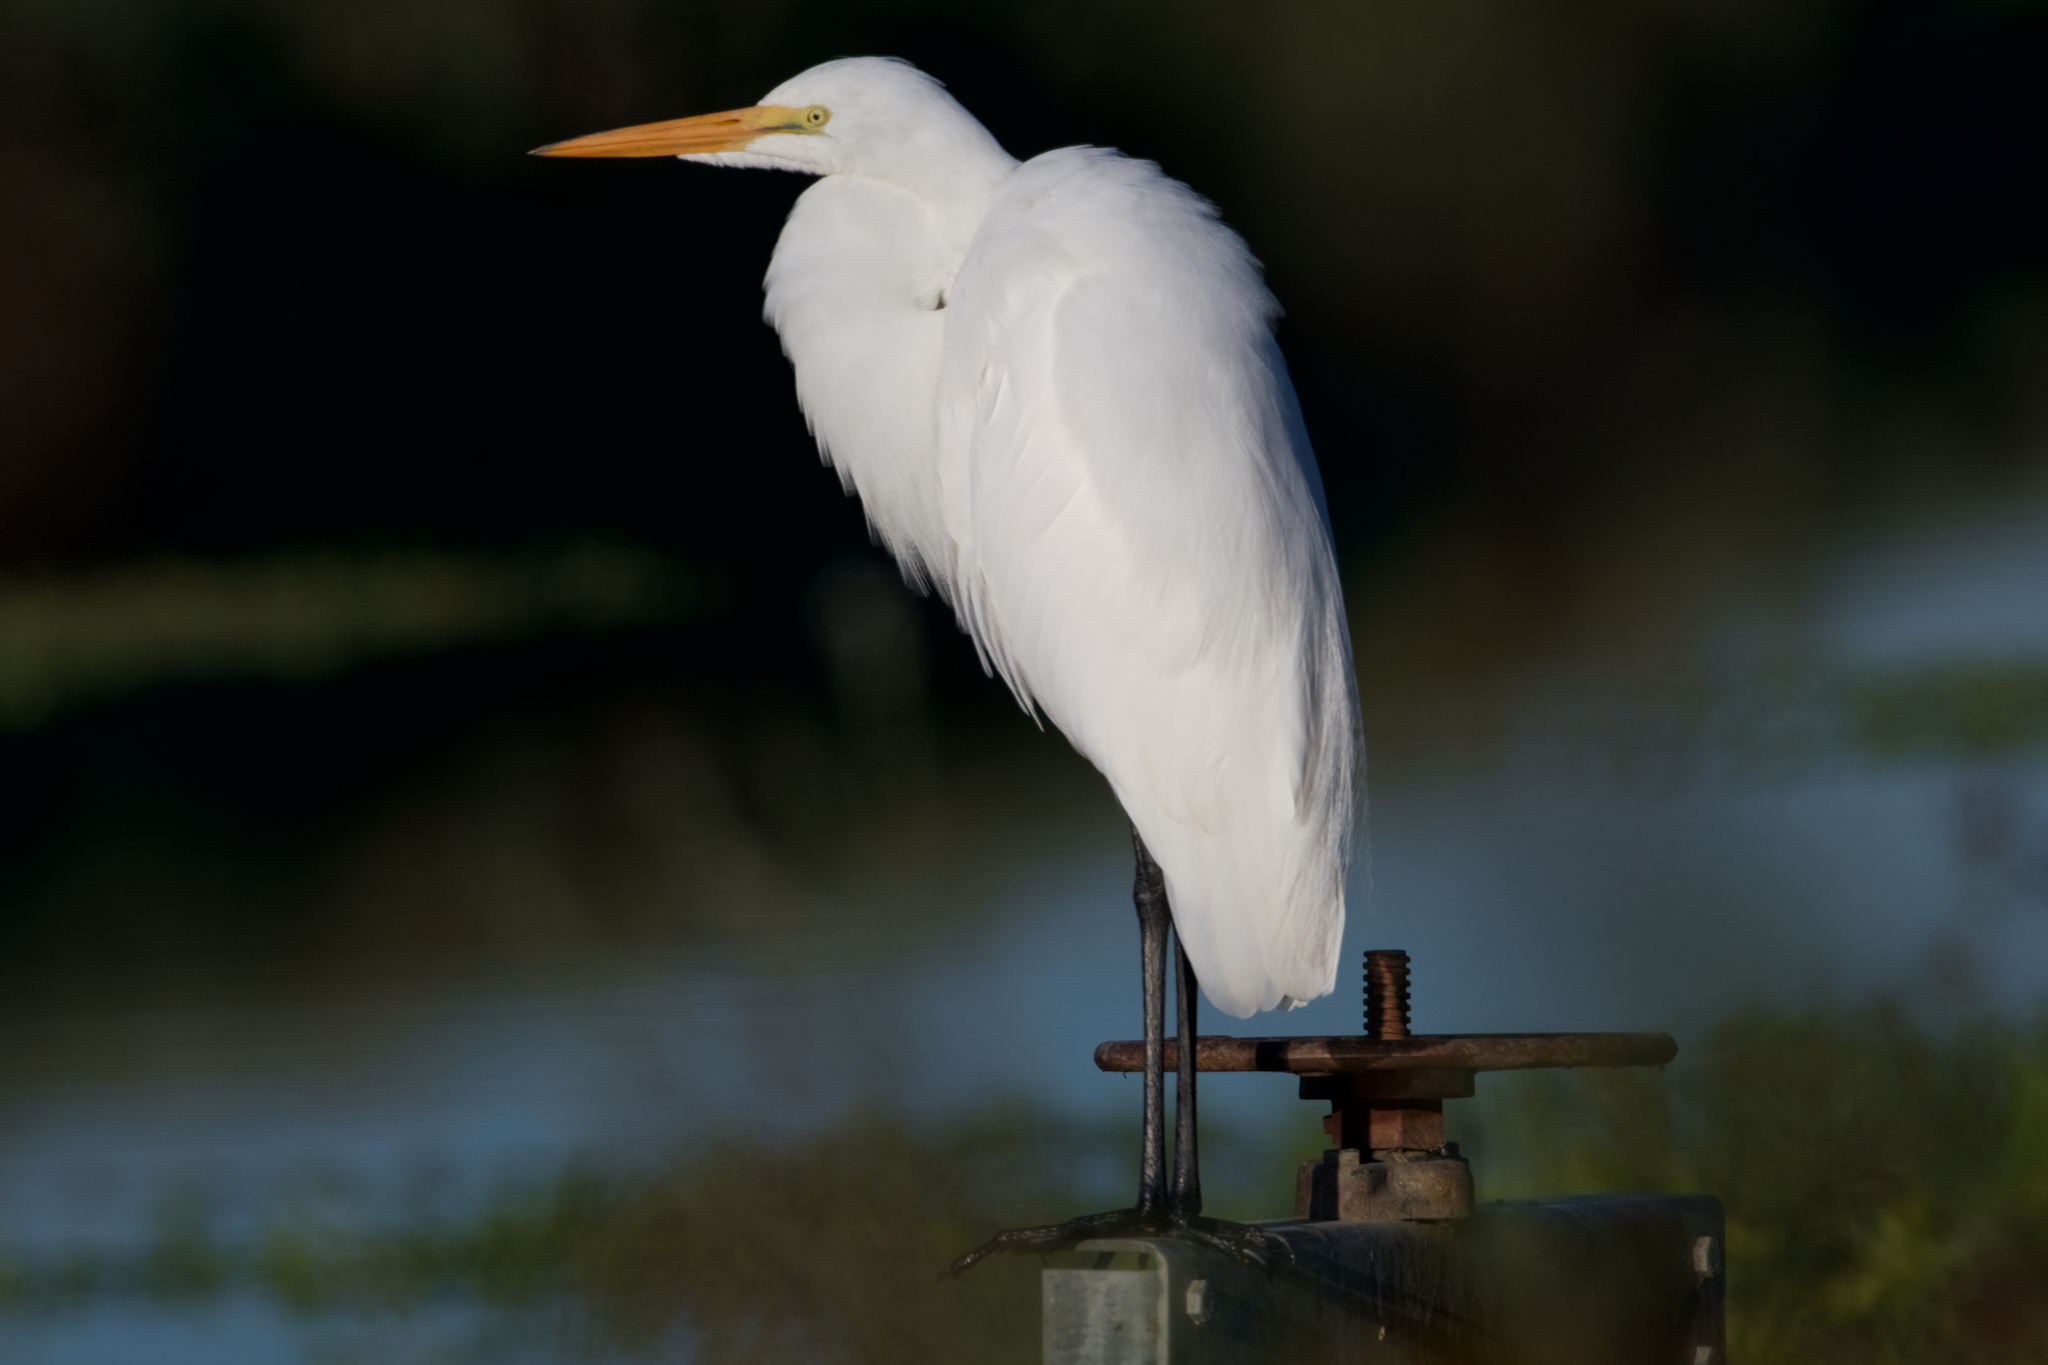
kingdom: Animalia
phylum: Chordata
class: Aves
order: Pelecaniformes
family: Ardeidae
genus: Ardea
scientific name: Ardea alba
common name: Great egret
